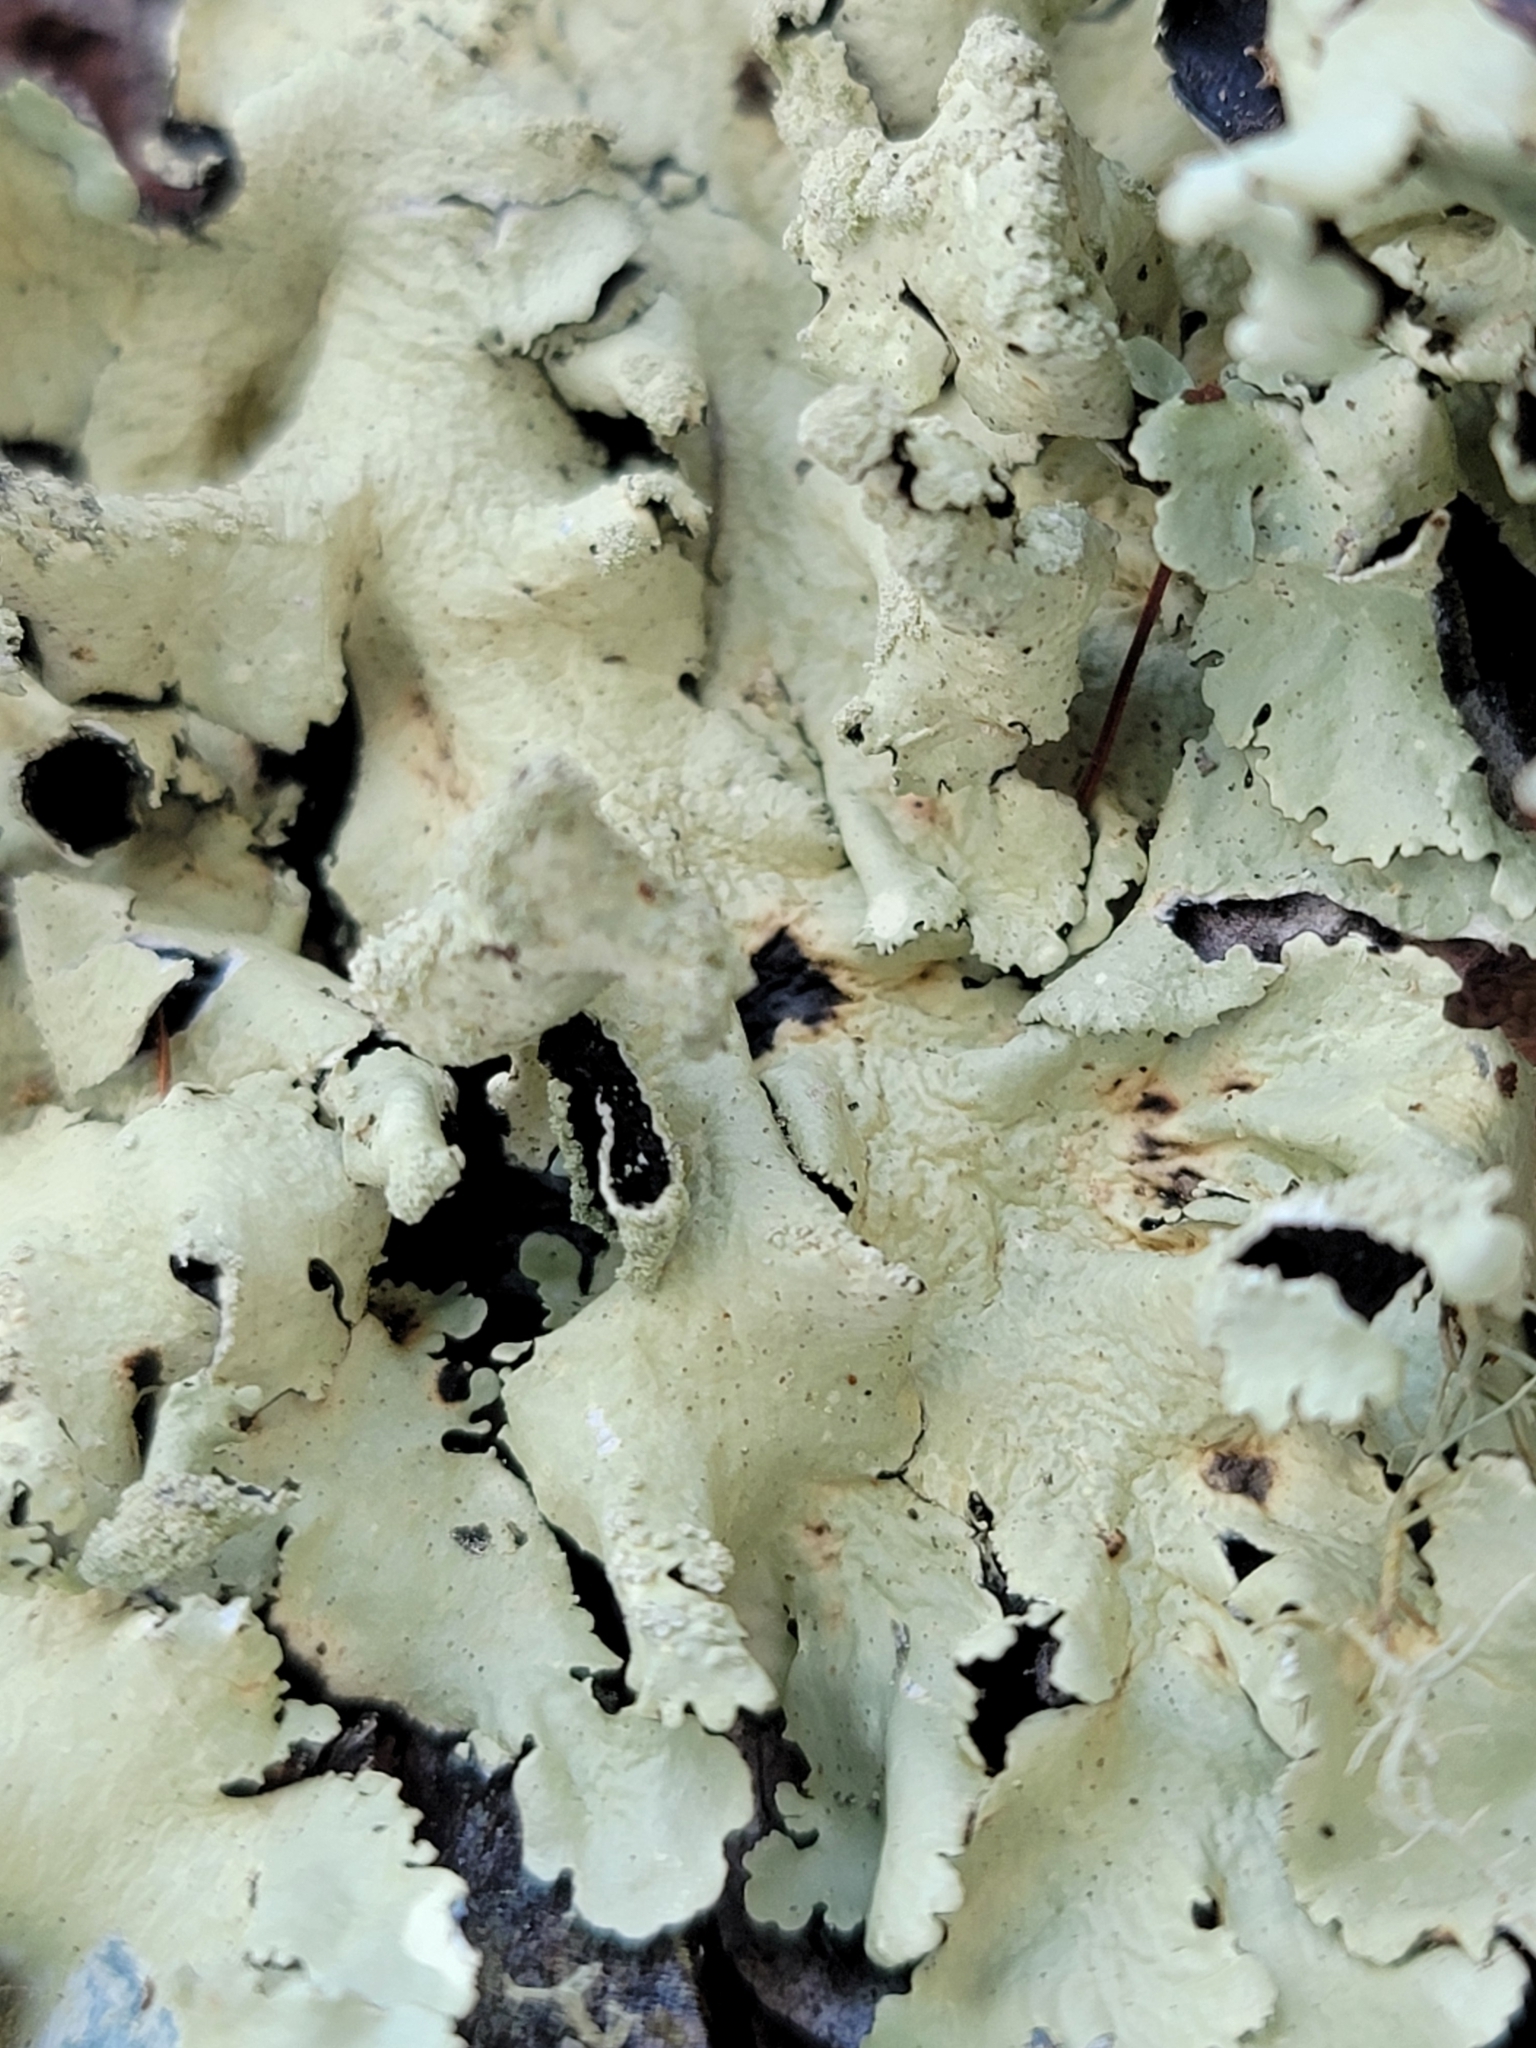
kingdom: Fungi
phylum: Ascomycota
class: Lecanoromycetes
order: Lecanorales
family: Parmeliaceae
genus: Flavoparmelia
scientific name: Flavoparmelia caperata
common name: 40-mile per hour lichen
